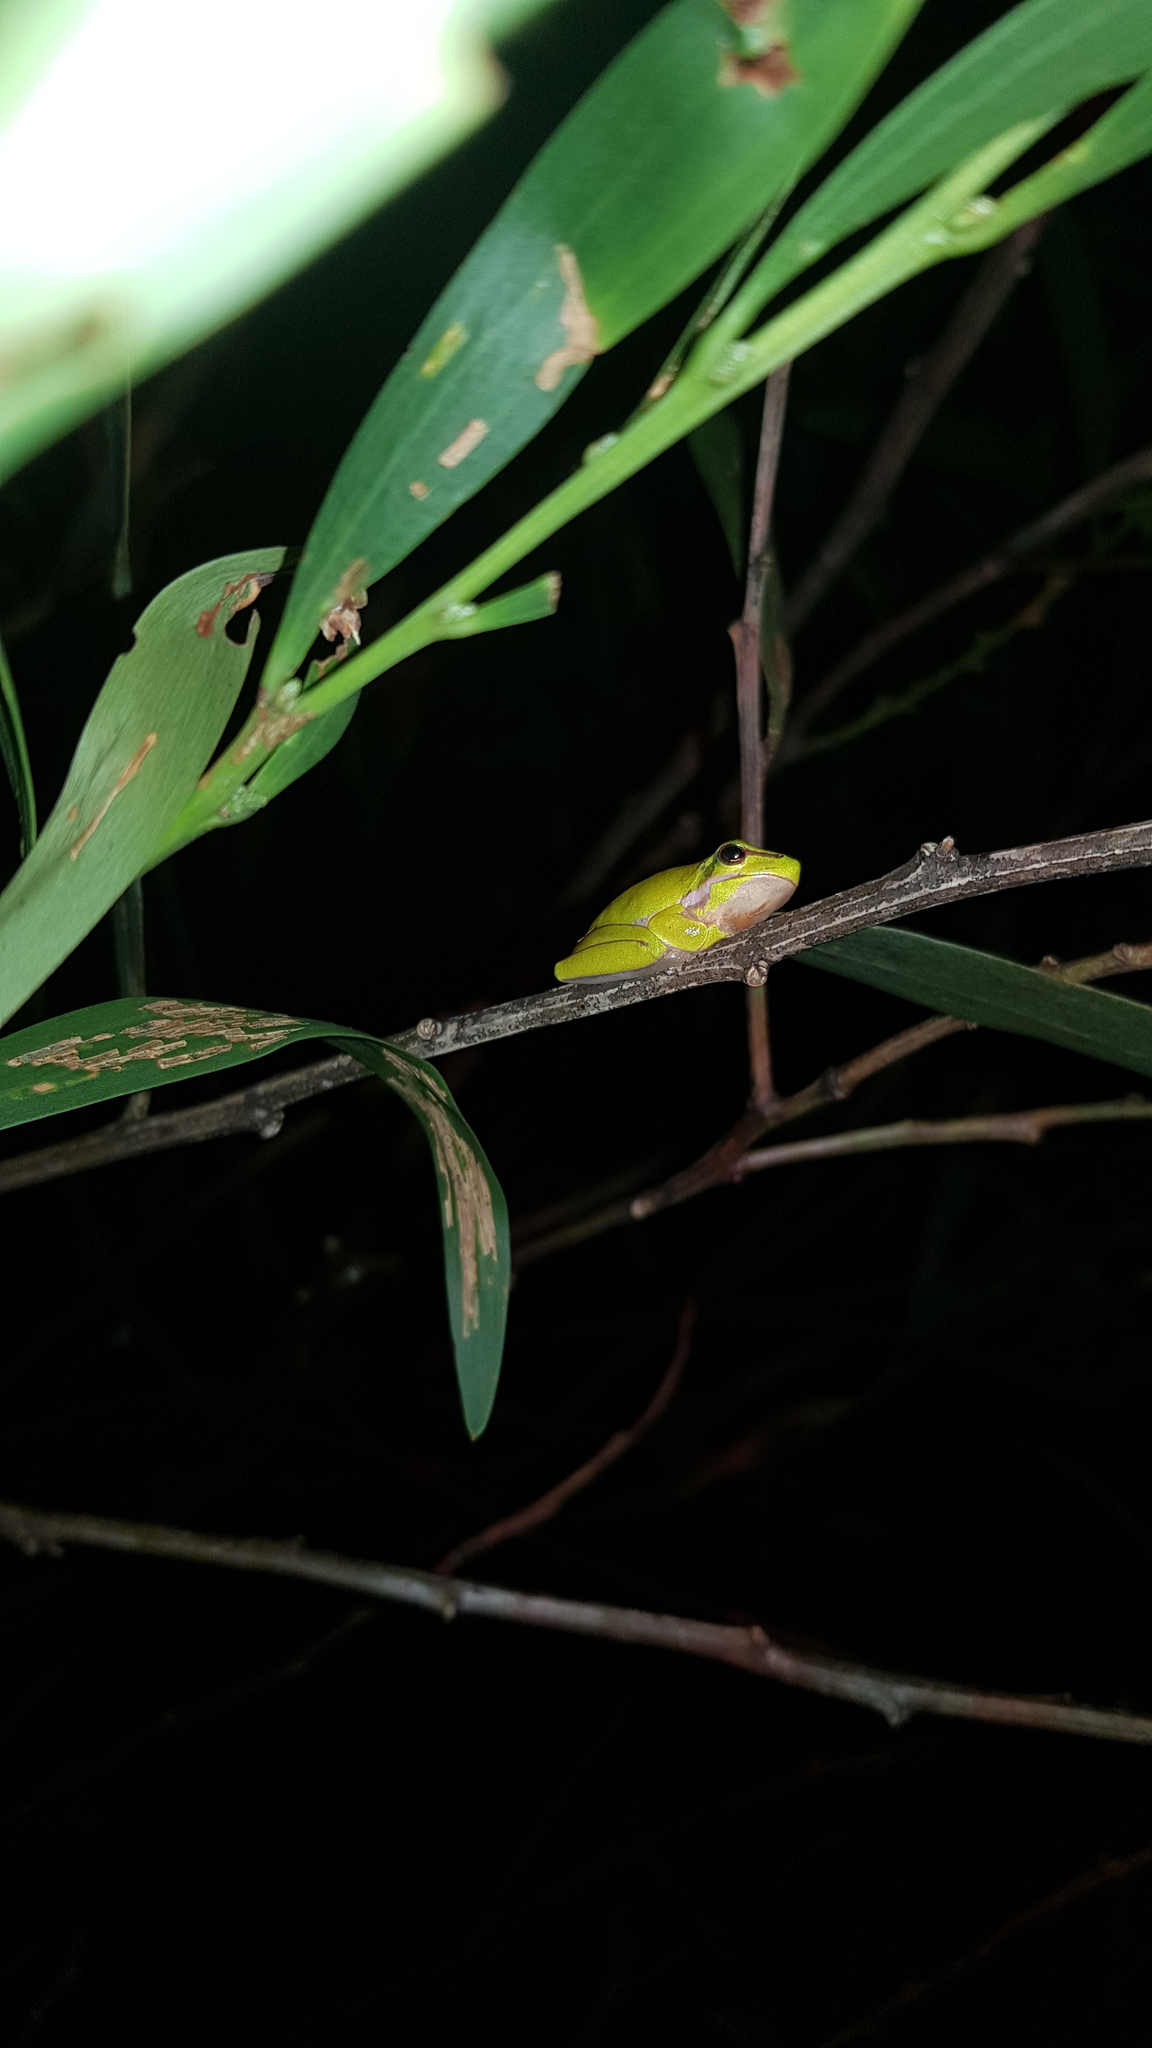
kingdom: Animalia
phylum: Chordata
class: Amphibia
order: Anura
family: Pelodryadidae
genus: Litoria
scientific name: Litoria fallax
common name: Eastern dwarf treefrog
